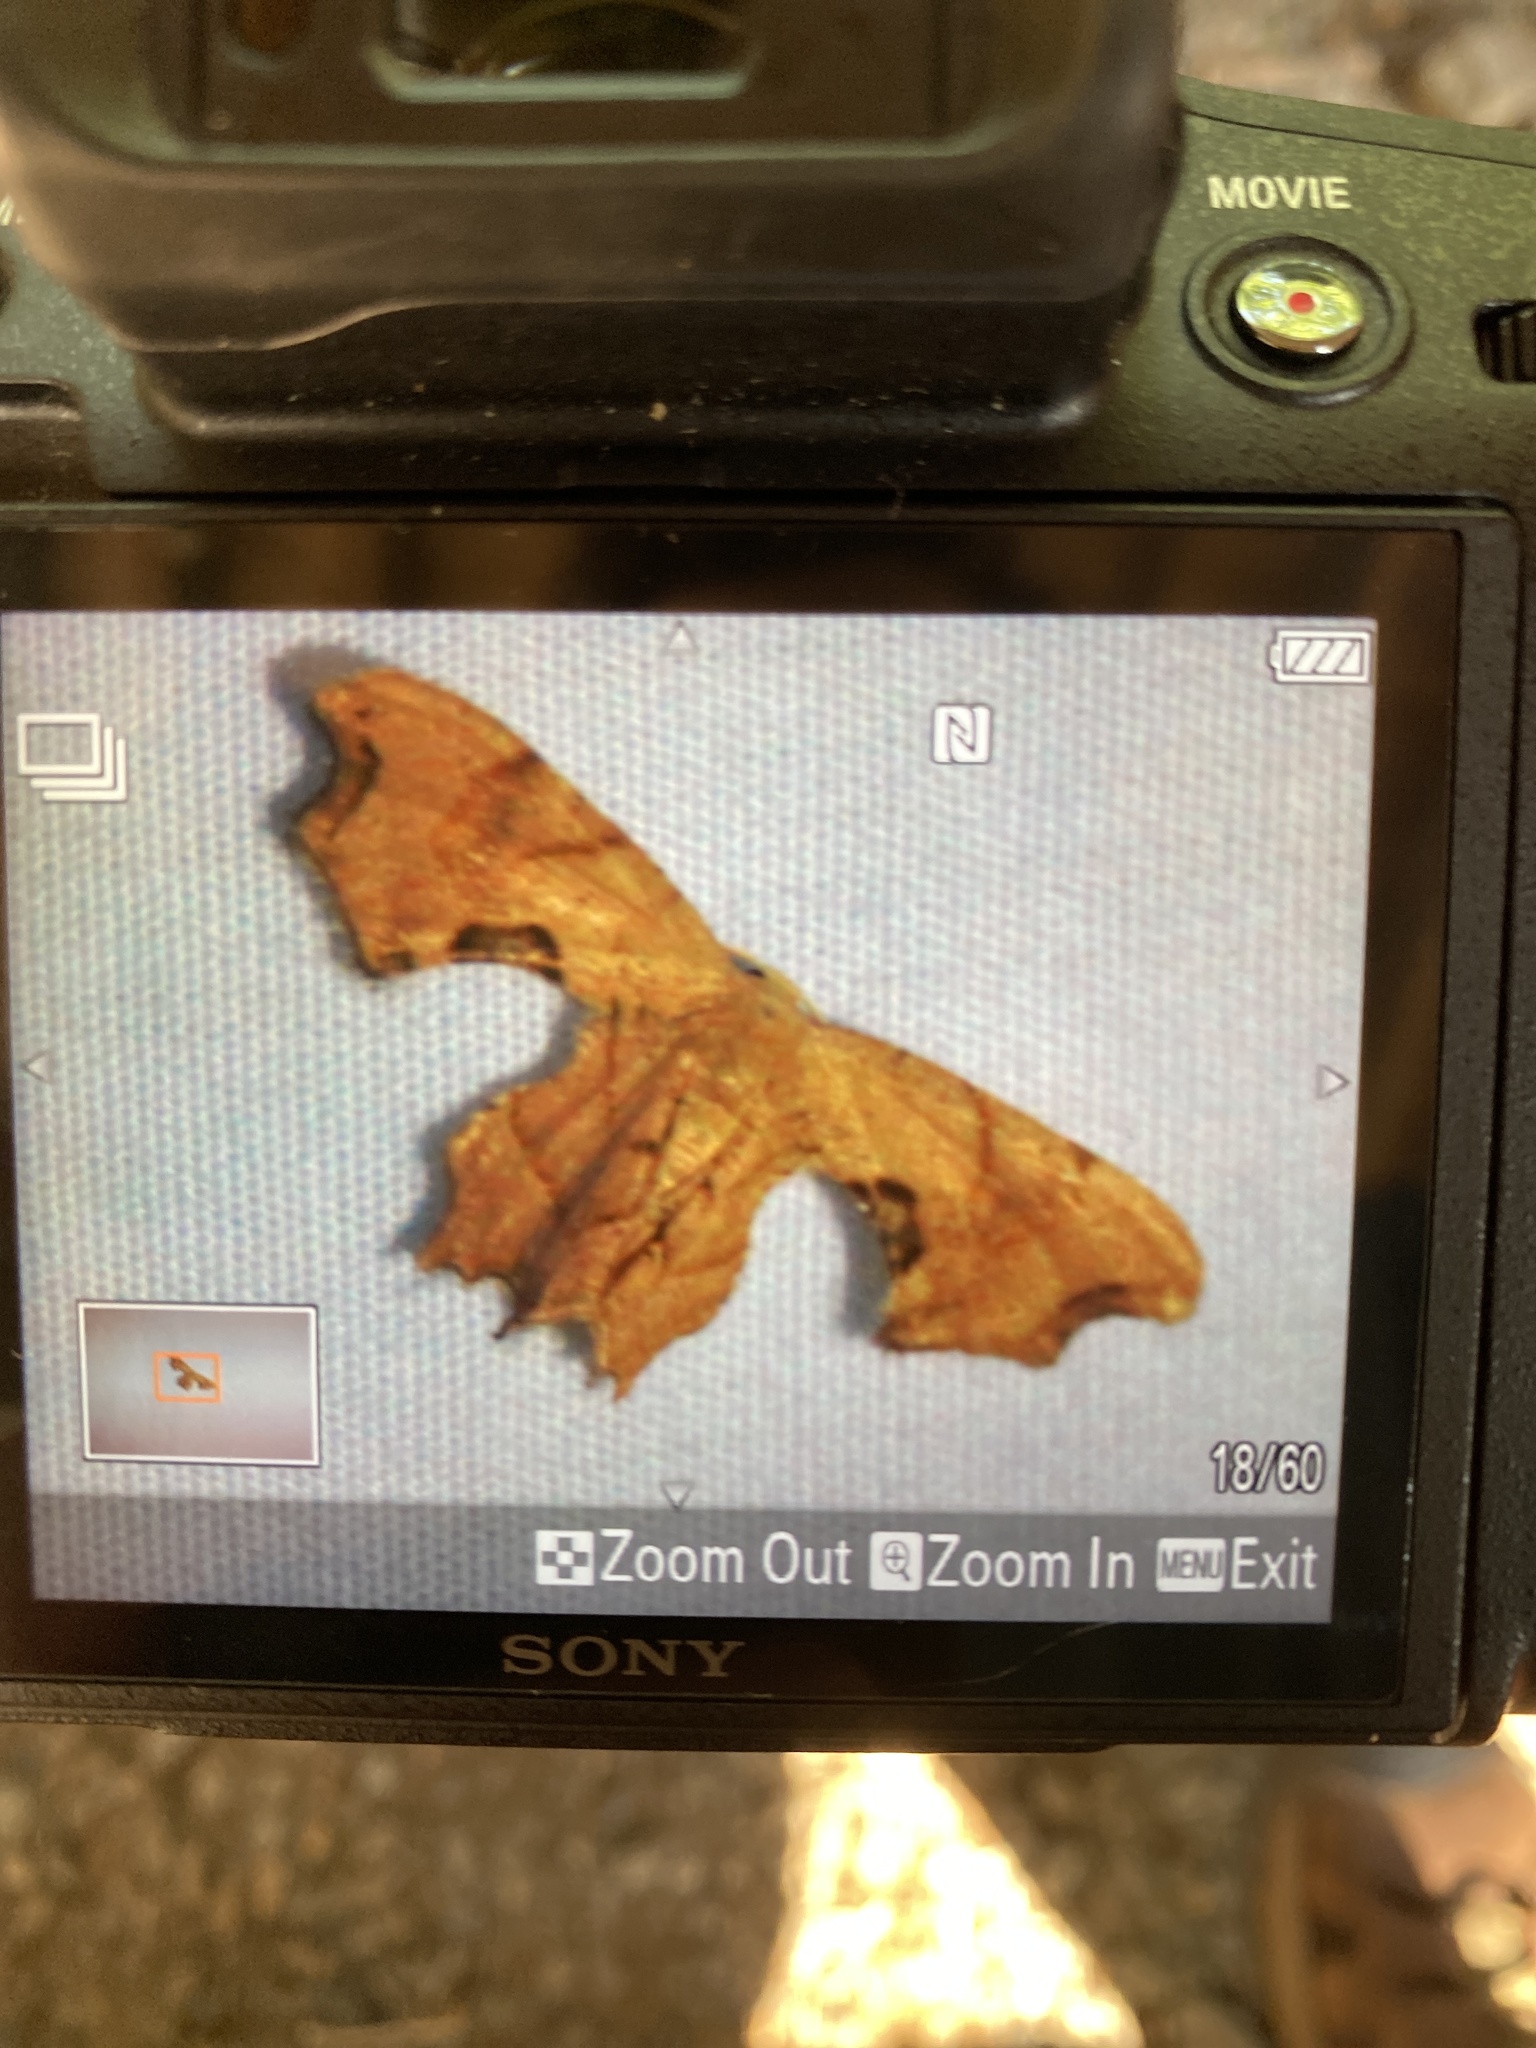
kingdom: Animalia
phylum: Arthropoda
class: Insecta
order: Lepidoptera
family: Uraniidae
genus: Epiplema
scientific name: Epiplema Calledapteryx dryopterata
